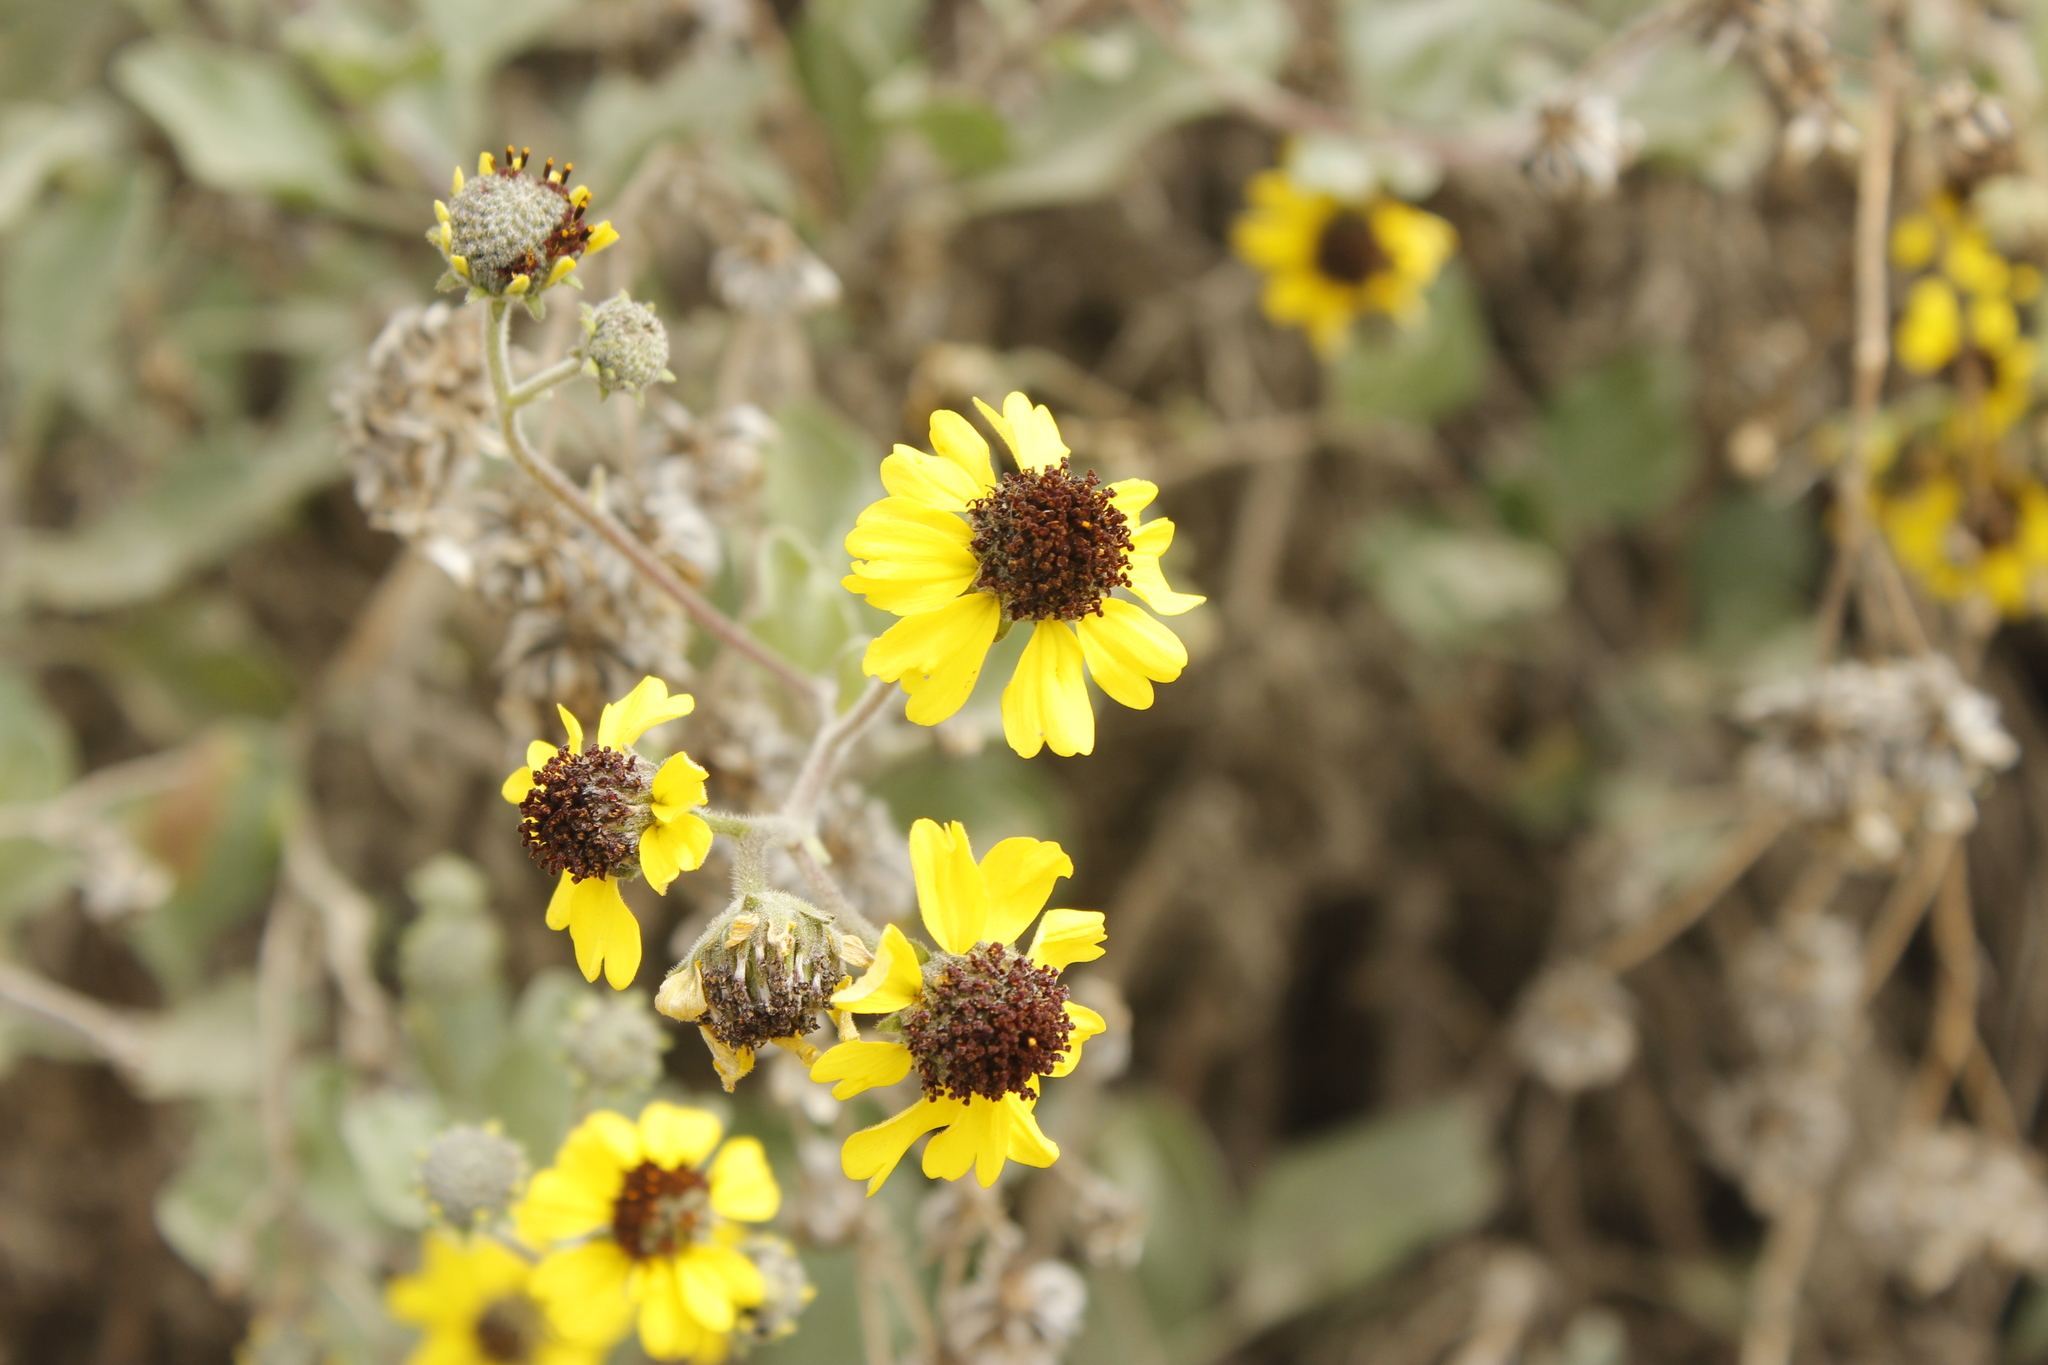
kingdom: Plantae
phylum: Tracheophyta
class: Magnoliopsida
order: Asterales
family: Asteraceae
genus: Encelia
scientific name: Encelia canescens
